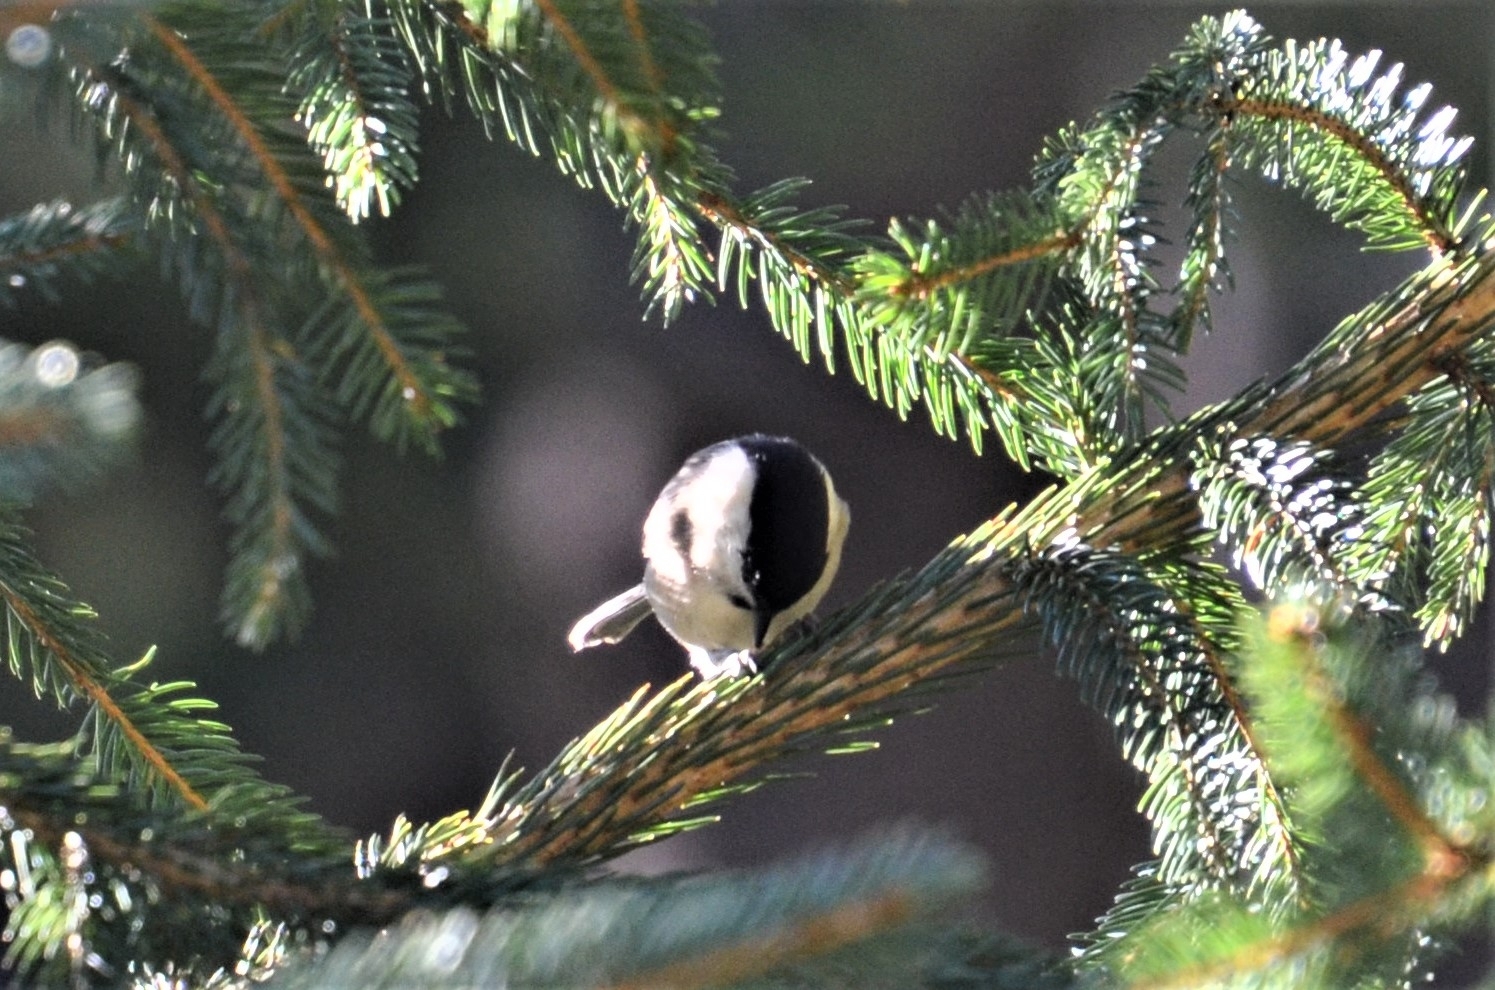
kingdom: Animalia
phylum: Chordata
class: Aves
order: Passeriformes
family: Paridae
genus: Poecile
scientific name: Poecile montanus
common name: Willow tit
